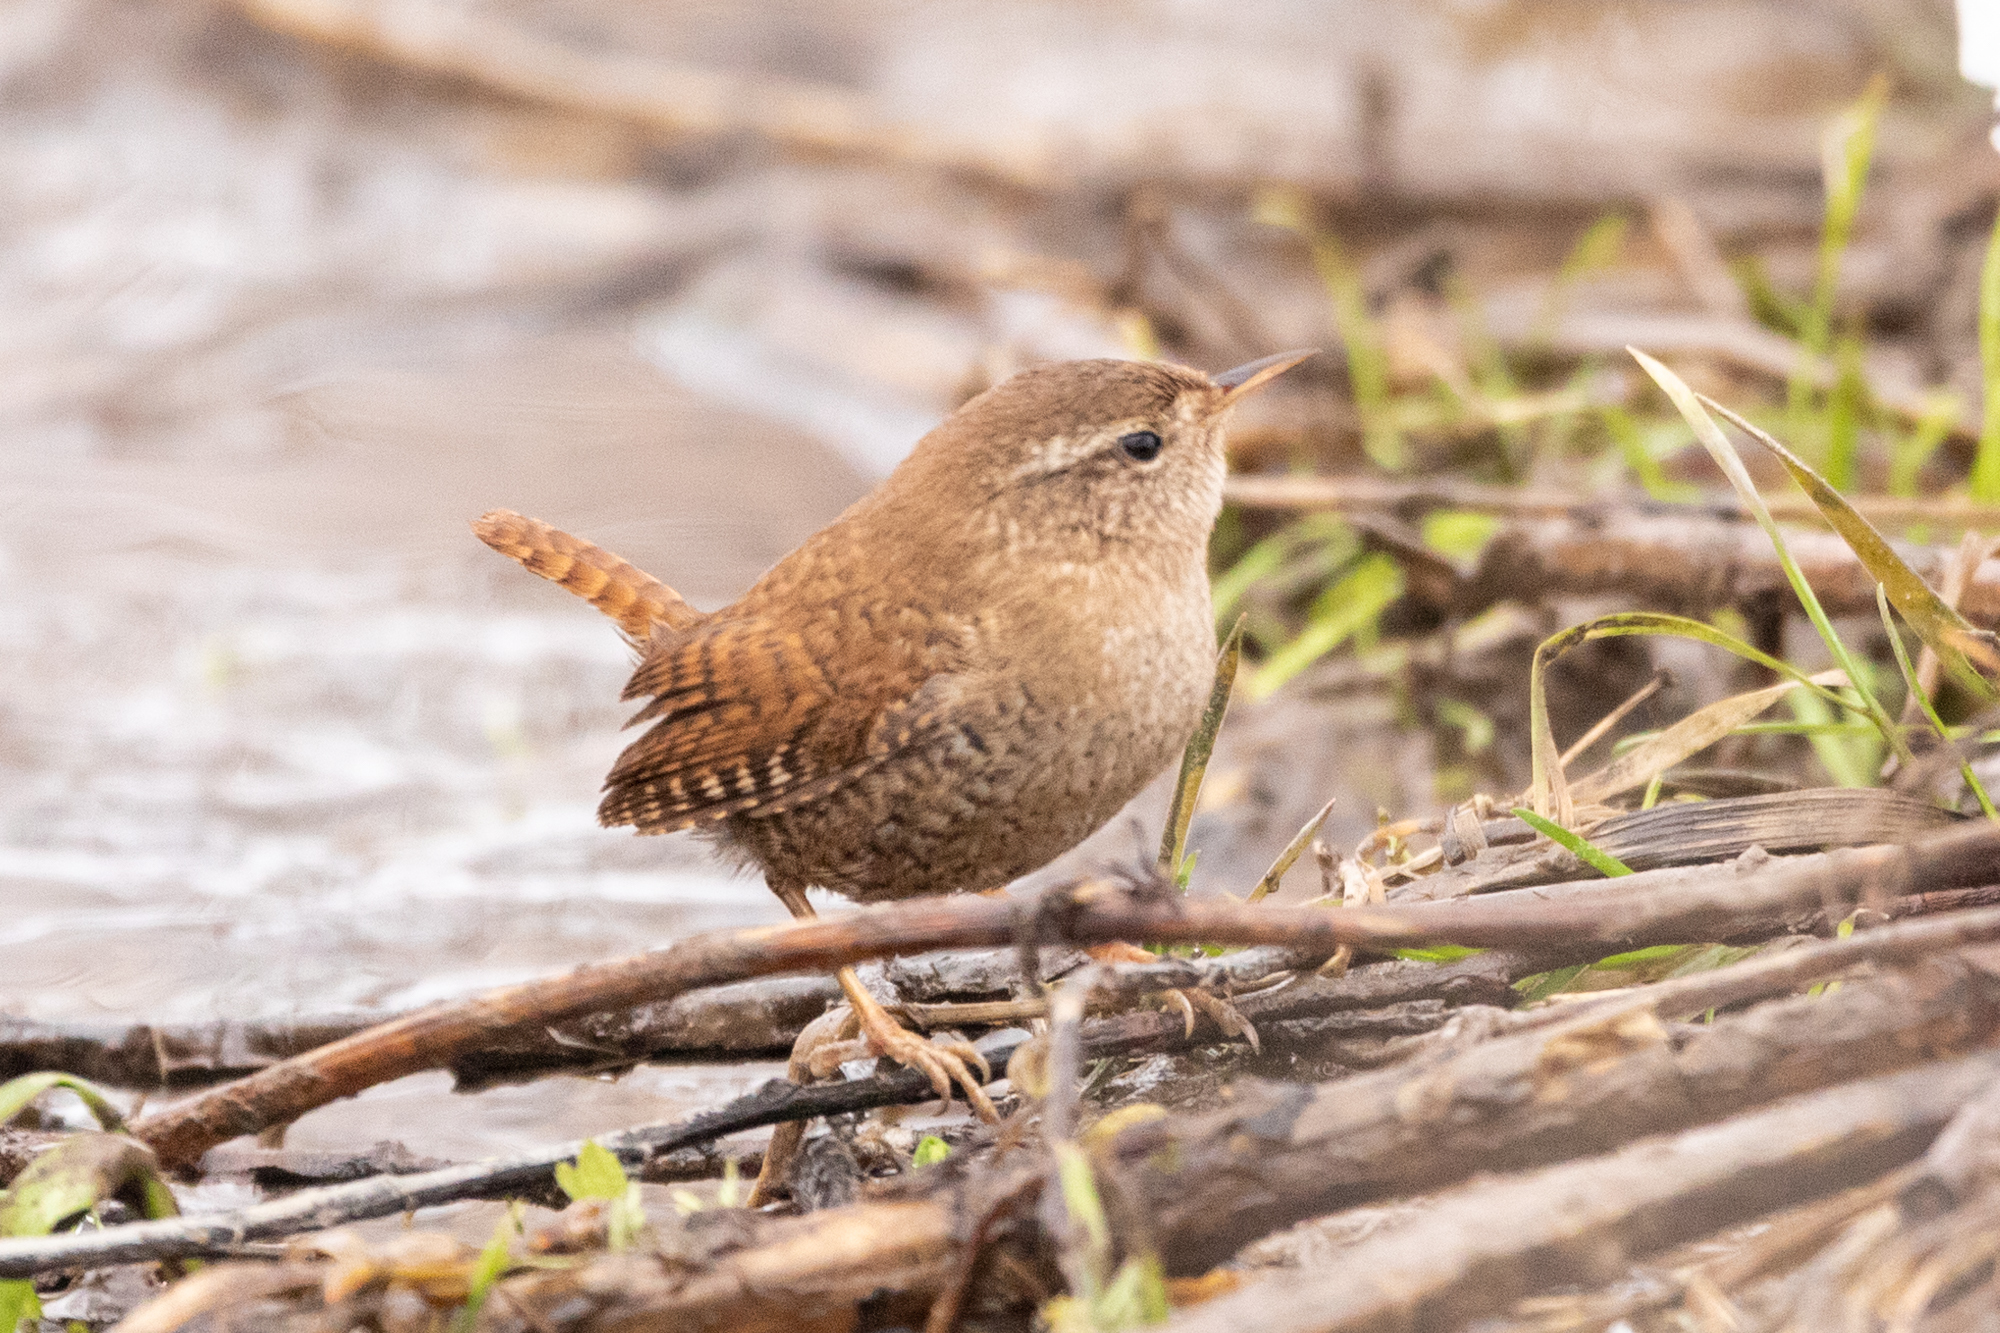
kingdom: Animalia
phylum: Chordata
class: Aves
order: Passeriformes
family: Troglodytidae
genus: Troglodytes
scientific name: Troglodytes troglodytes
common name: Eurasian wren
